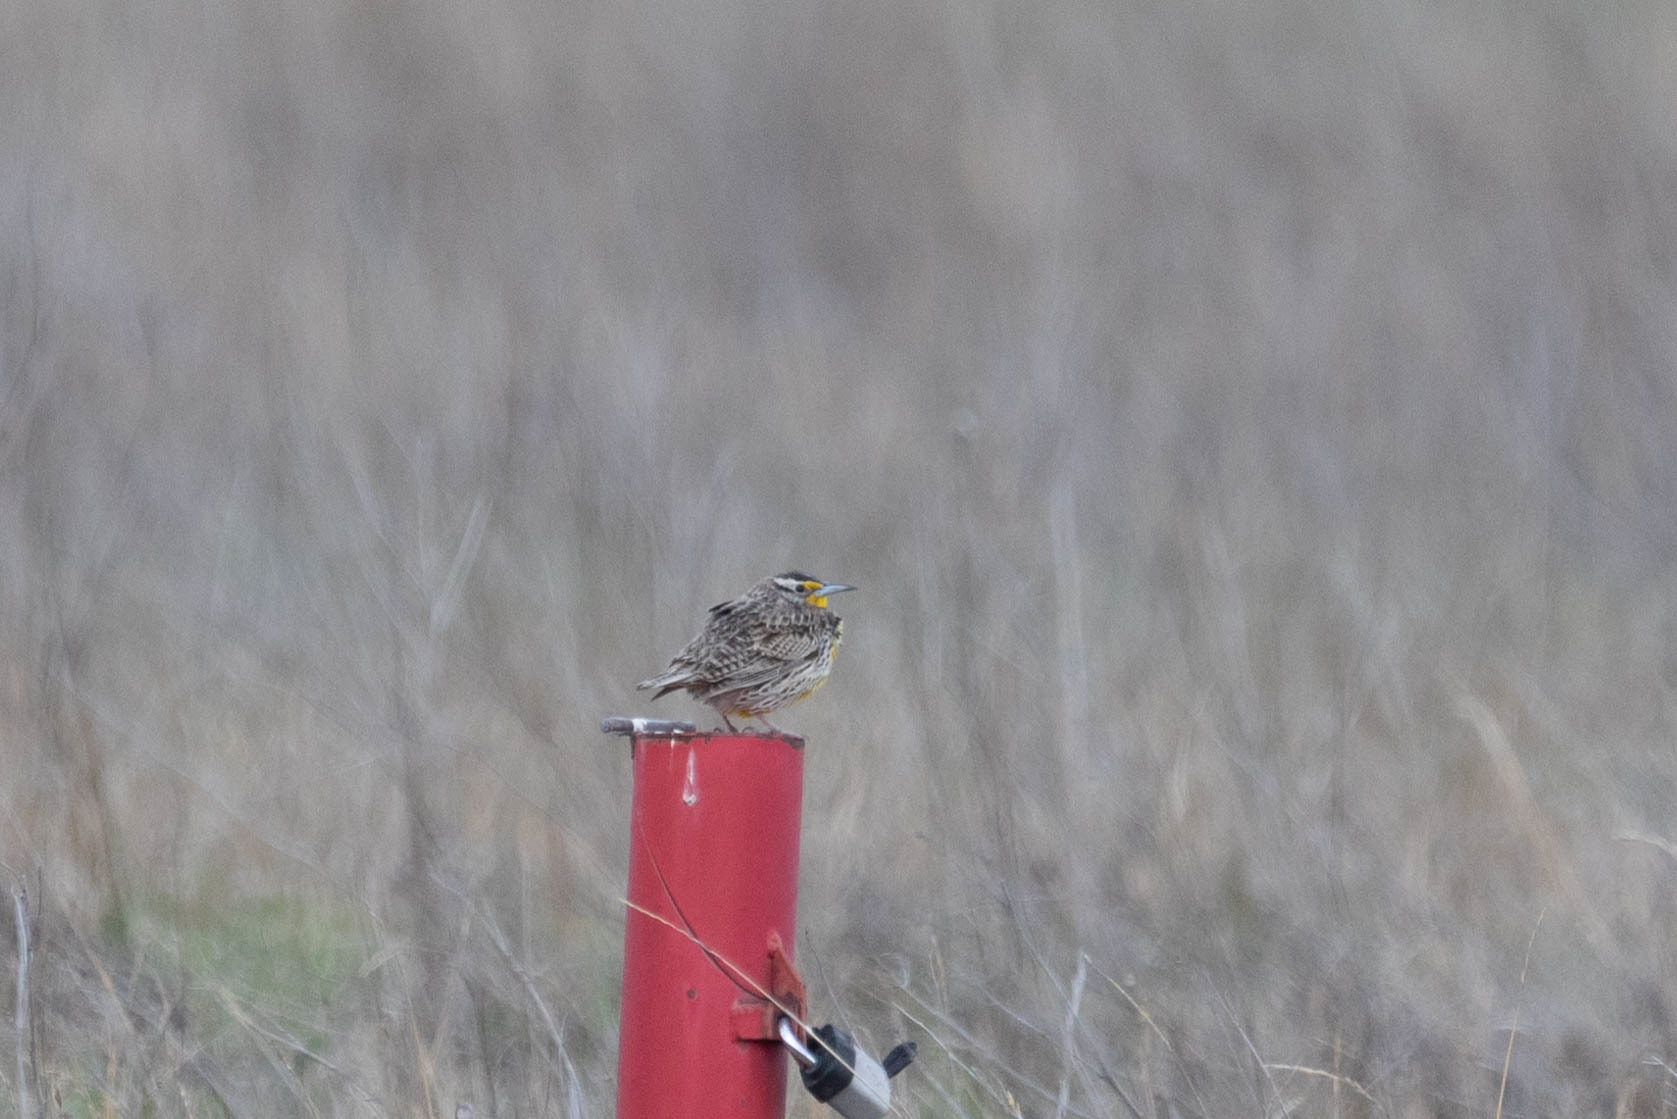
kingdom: Animalia
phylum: Chordata
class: Aves
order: Passeriformes
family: Icteridae
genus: Sturnella
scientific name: Sturnella neglecta
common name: Western meadowlark
